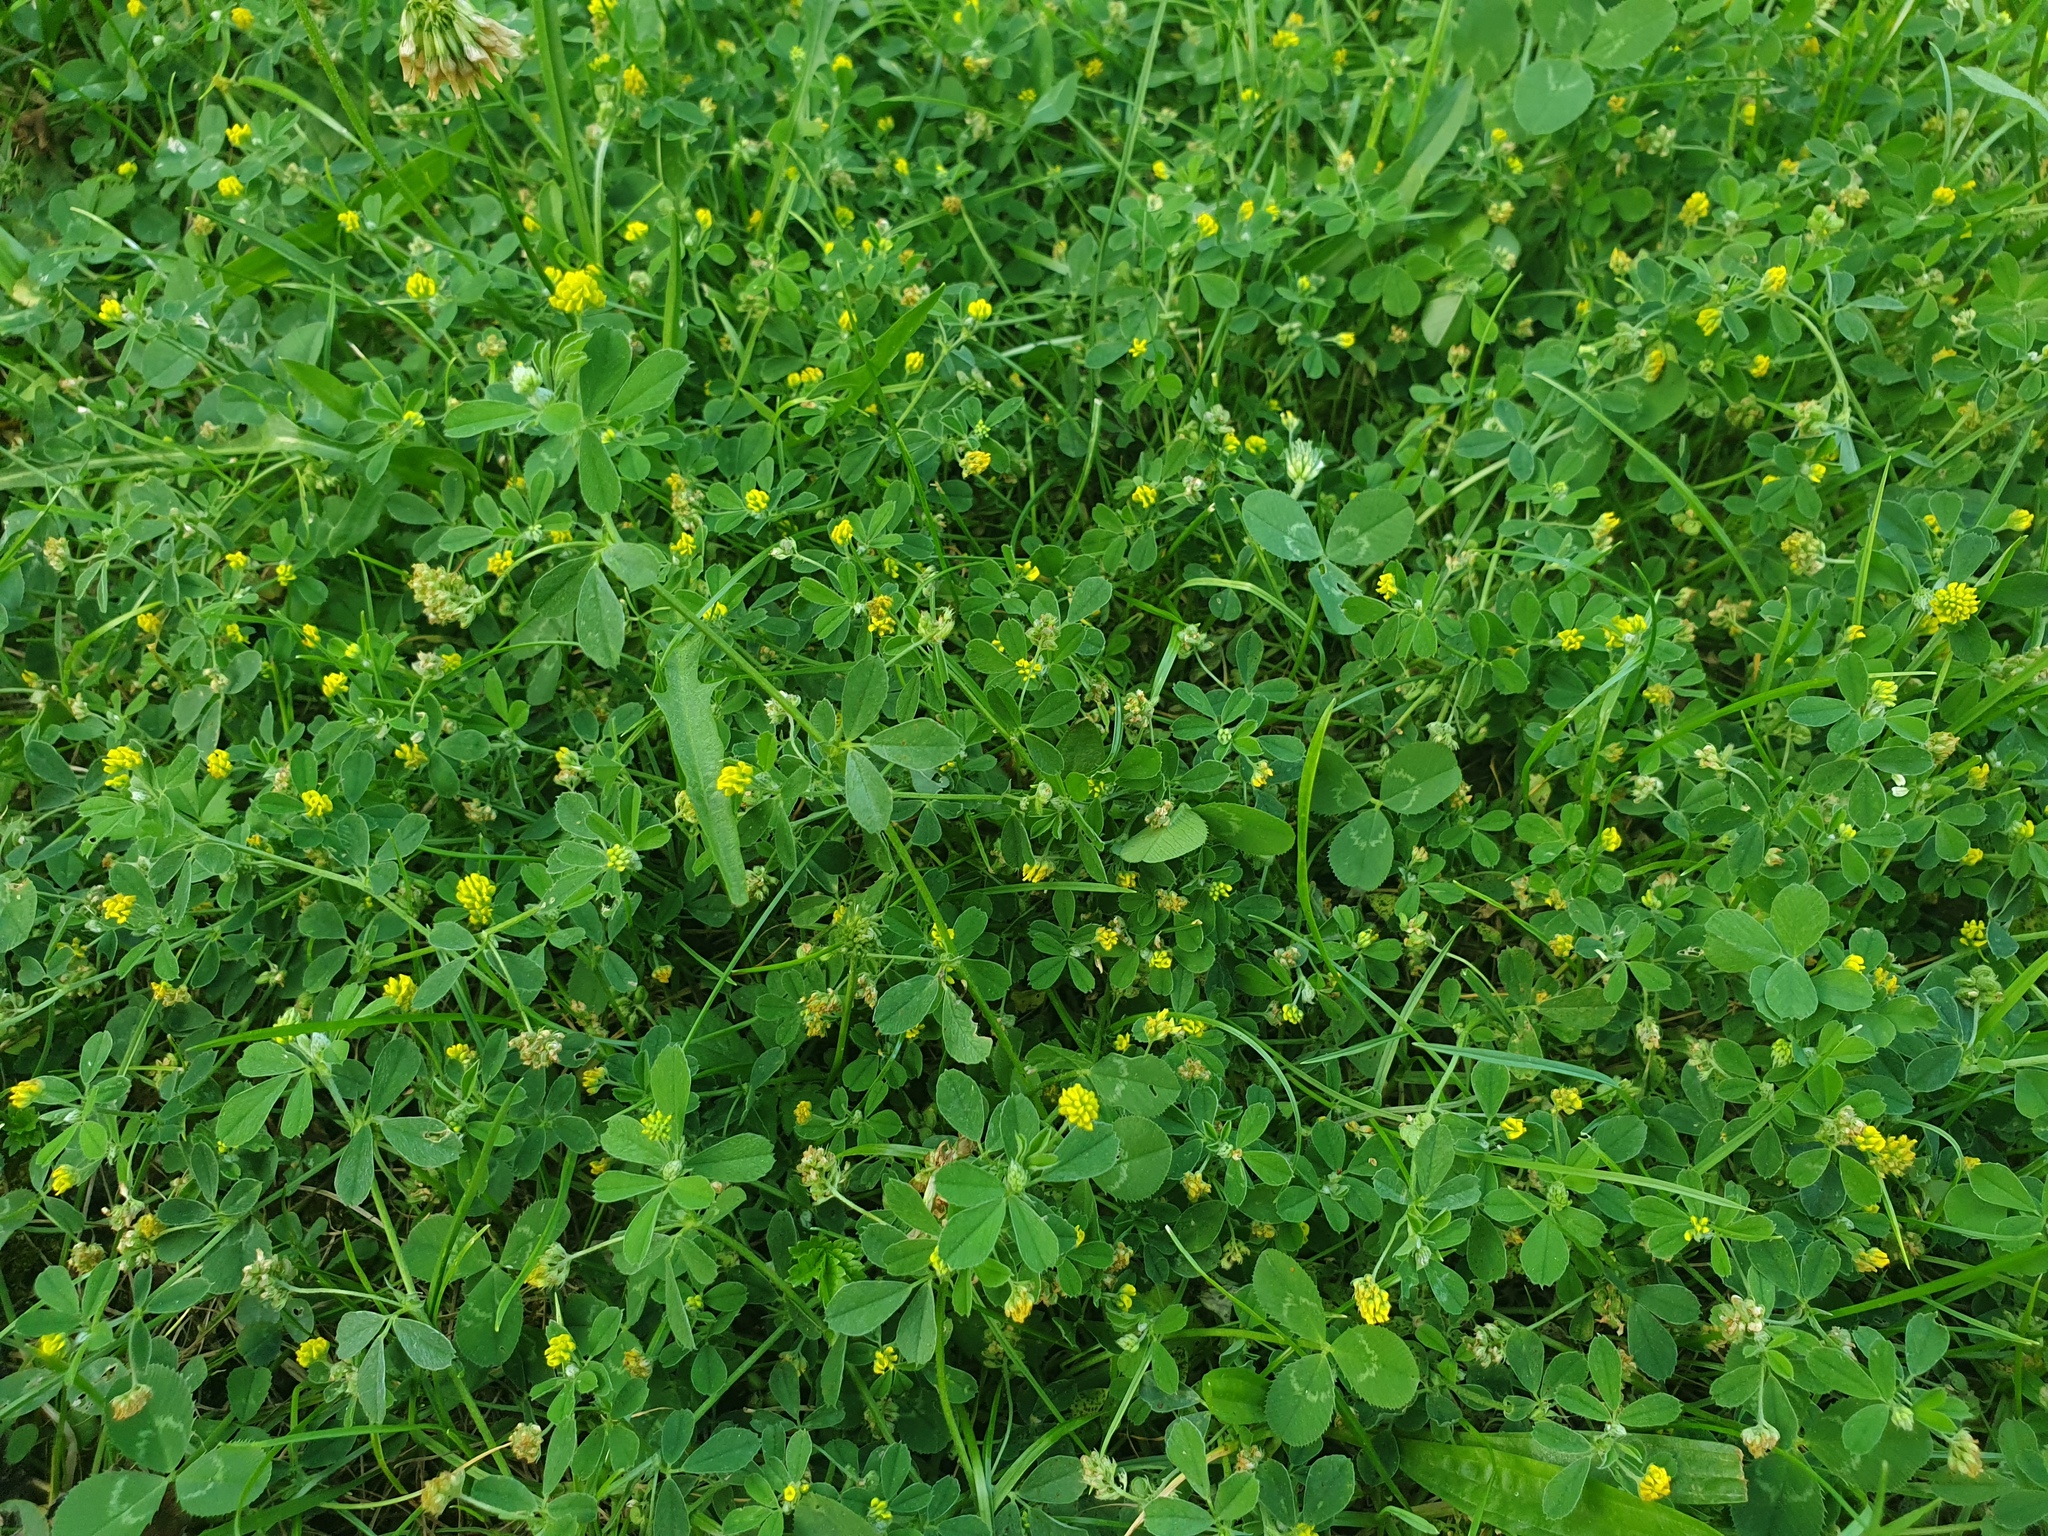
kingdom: Plantae
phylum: Tracheophyta
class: Magnoliopsida
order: Fabales
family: Fabaceae
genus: Medicago
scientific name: Medicago lupulina
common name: Black medick
